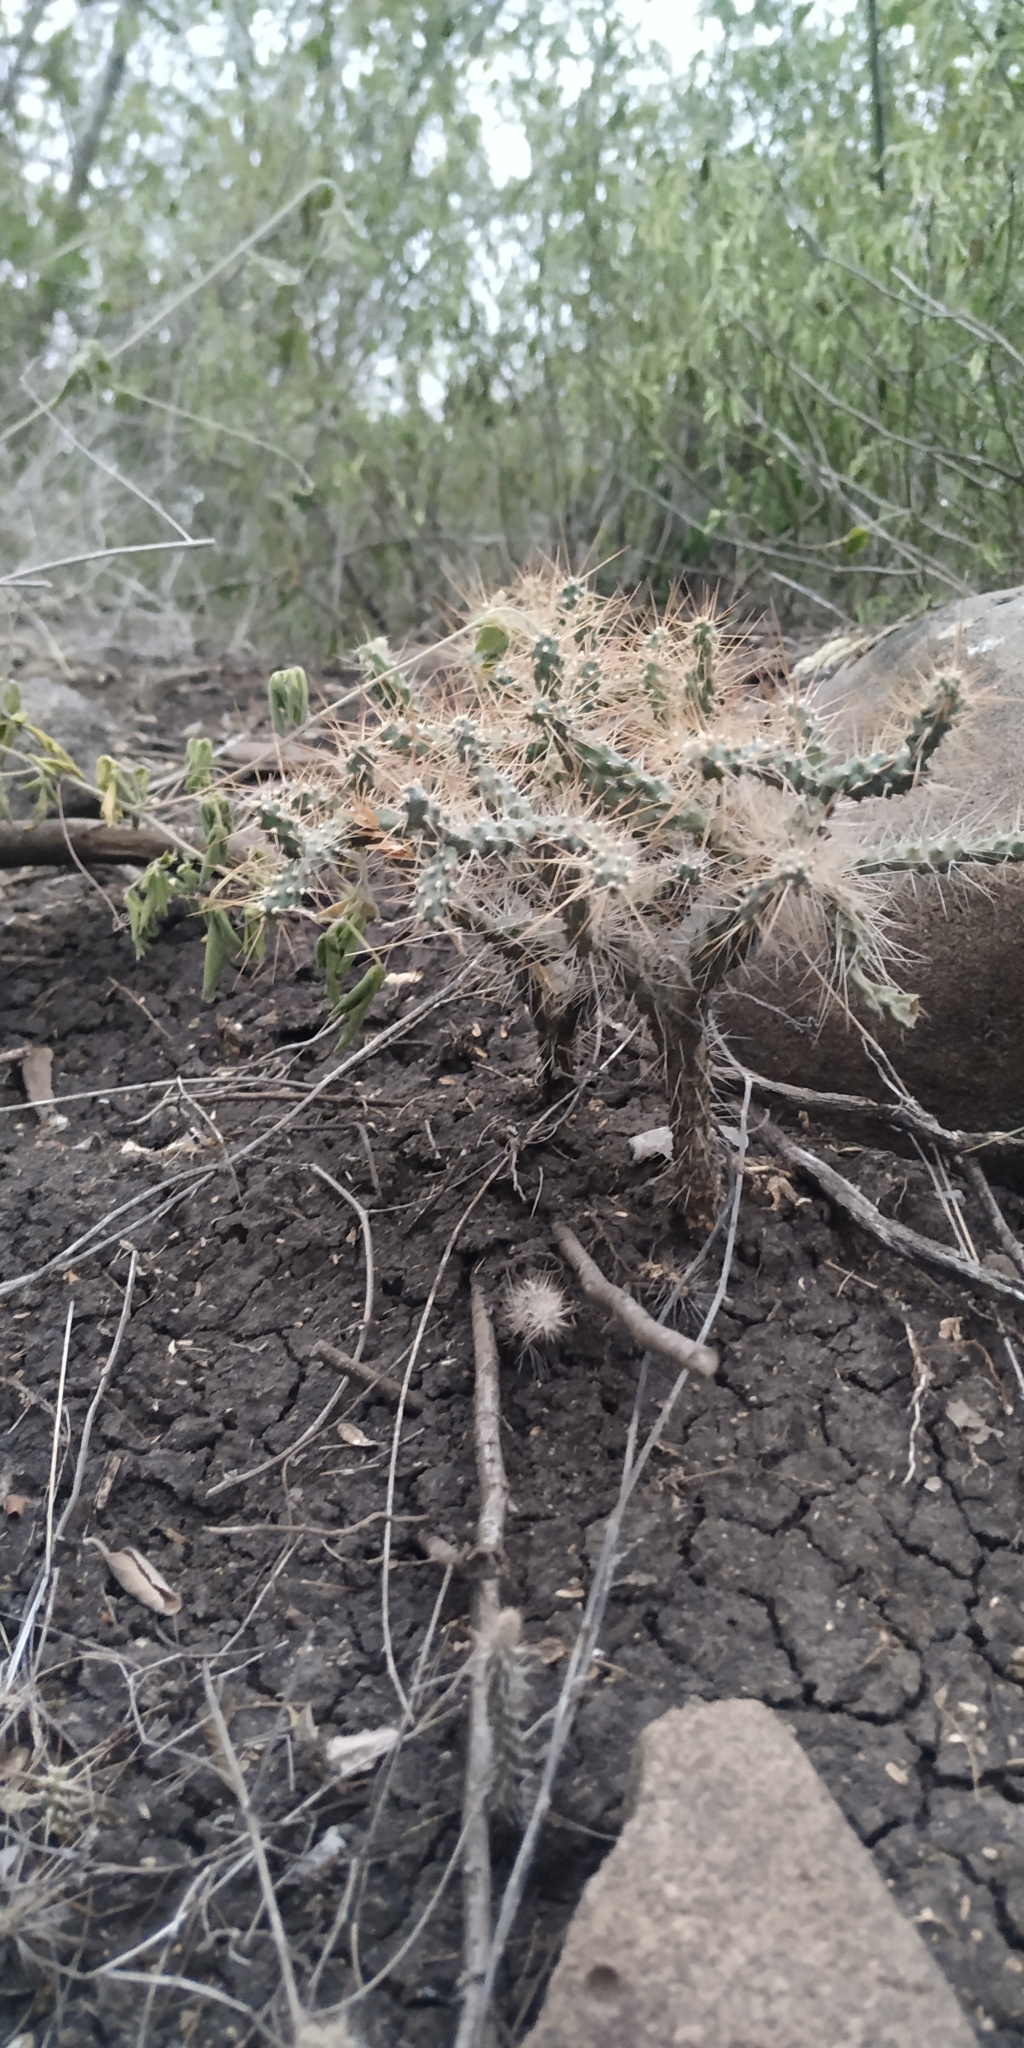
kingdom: Plantae
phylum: Tracheophyta
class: Magnoliopsida
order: Caryophyllales
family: Cactaceae
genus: Opuntia
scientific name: Opuntia pubescens
